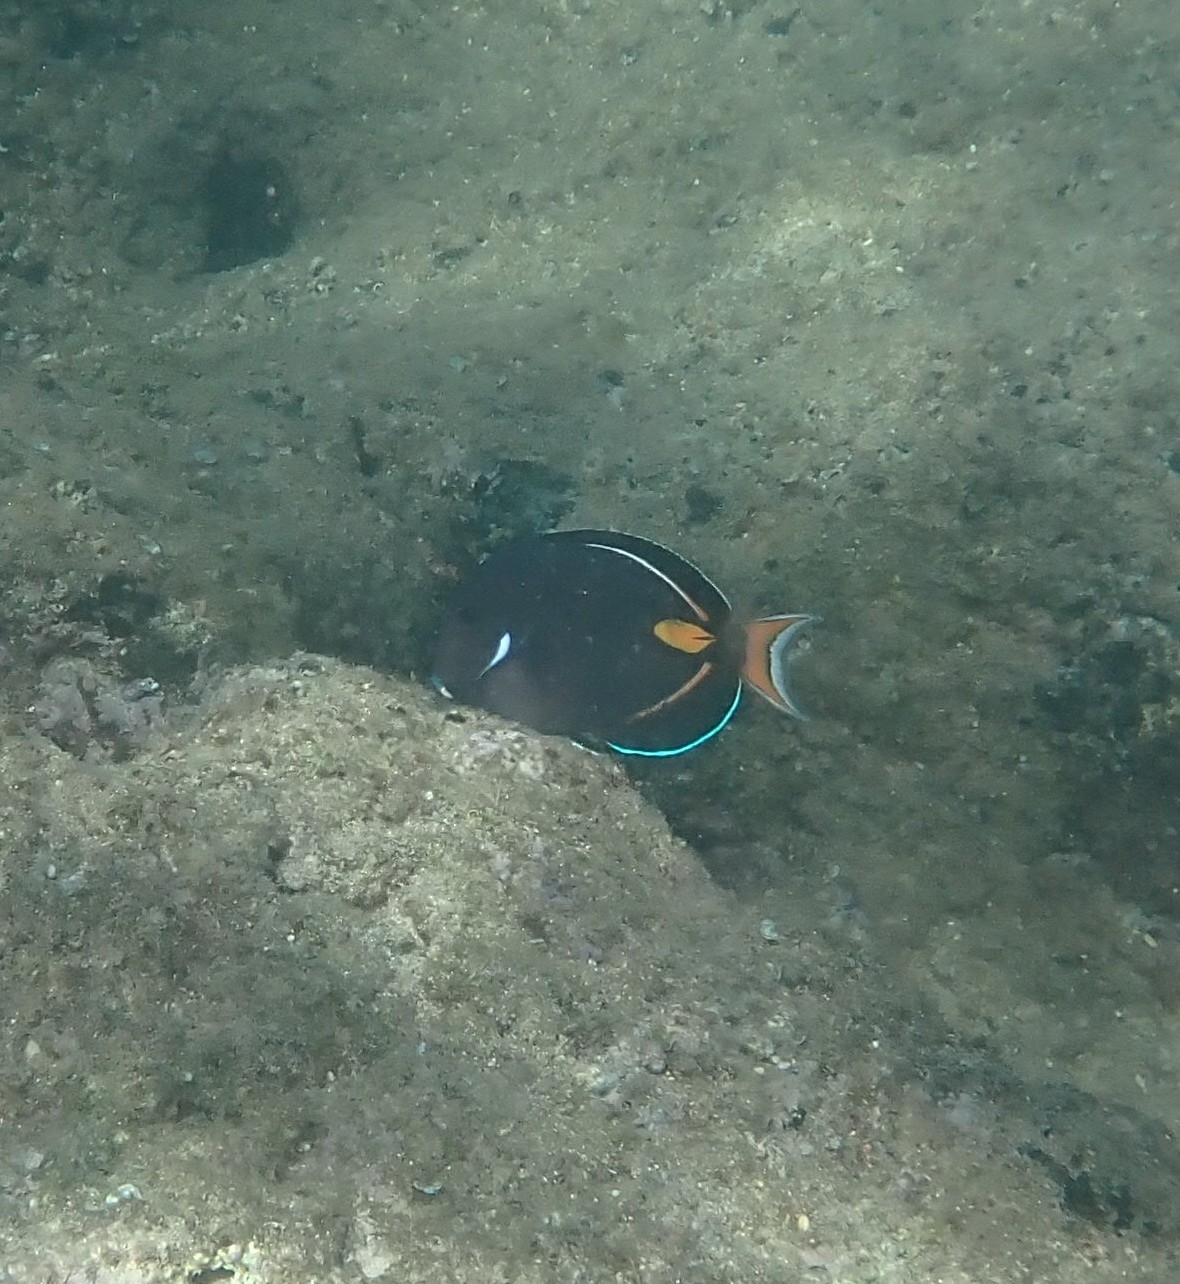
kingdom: Animalia
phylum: Chordata
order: Perciformes
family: Acanthuridae
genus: Acanthurus
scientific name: Acanthurus achilles
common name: Achilles tang
